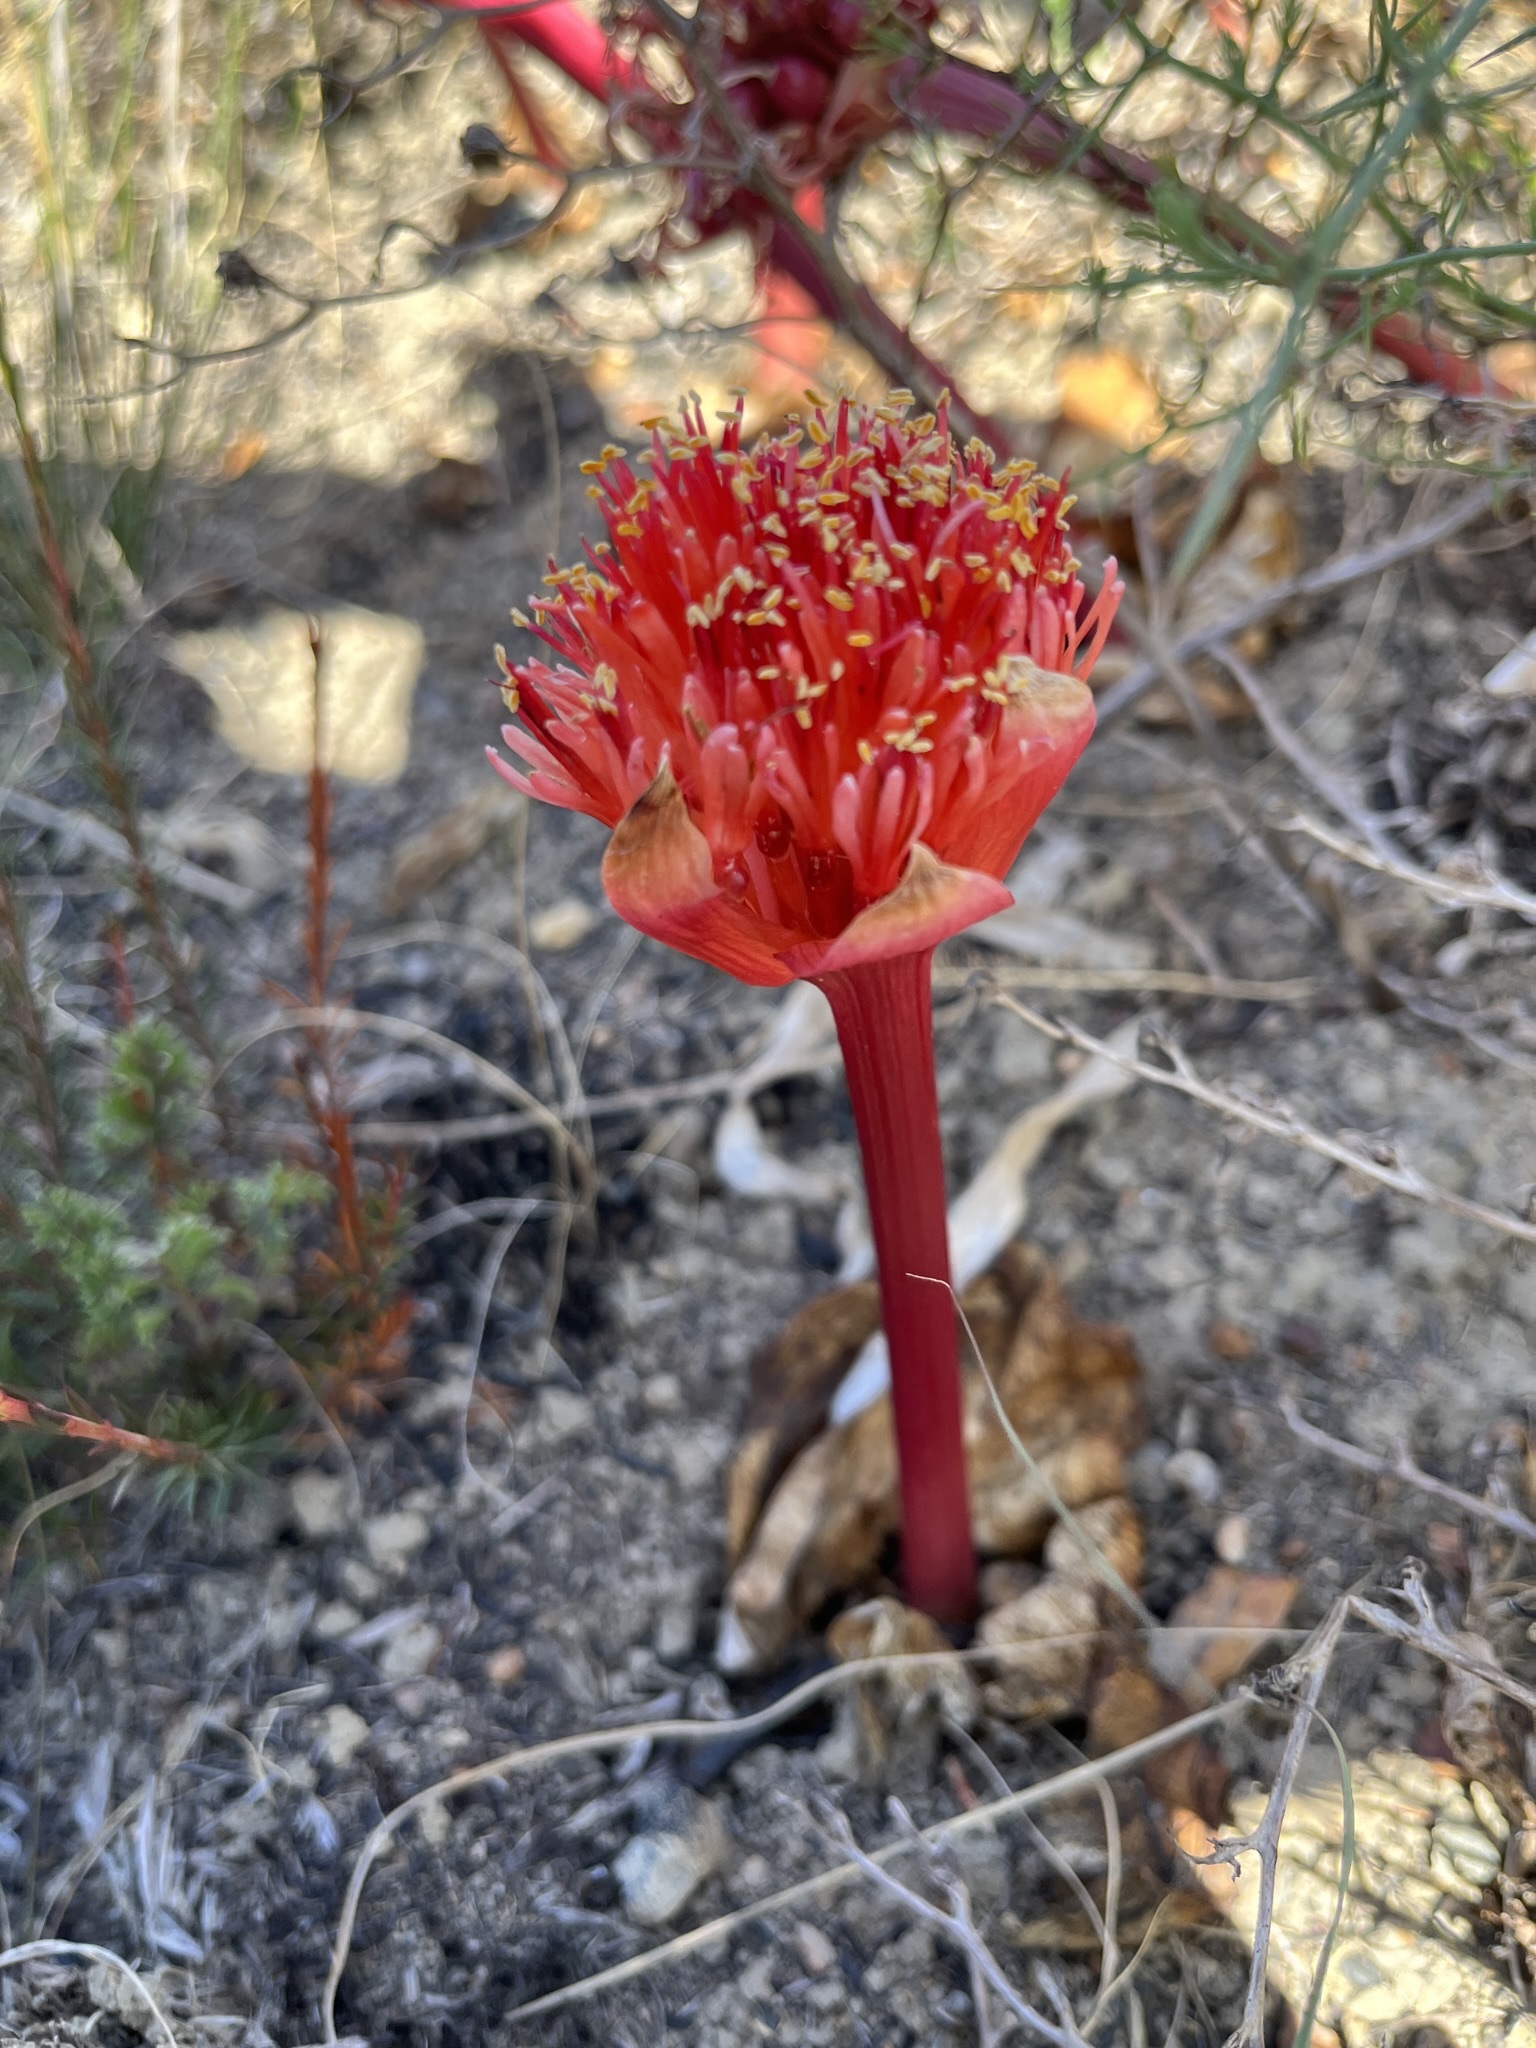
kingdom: Plantae
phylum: Tracheophyta
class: Liliopsida
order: Asparagales
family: Amaryllidaceae
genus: Haemanthus
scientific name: Haemanthus sanguineus
